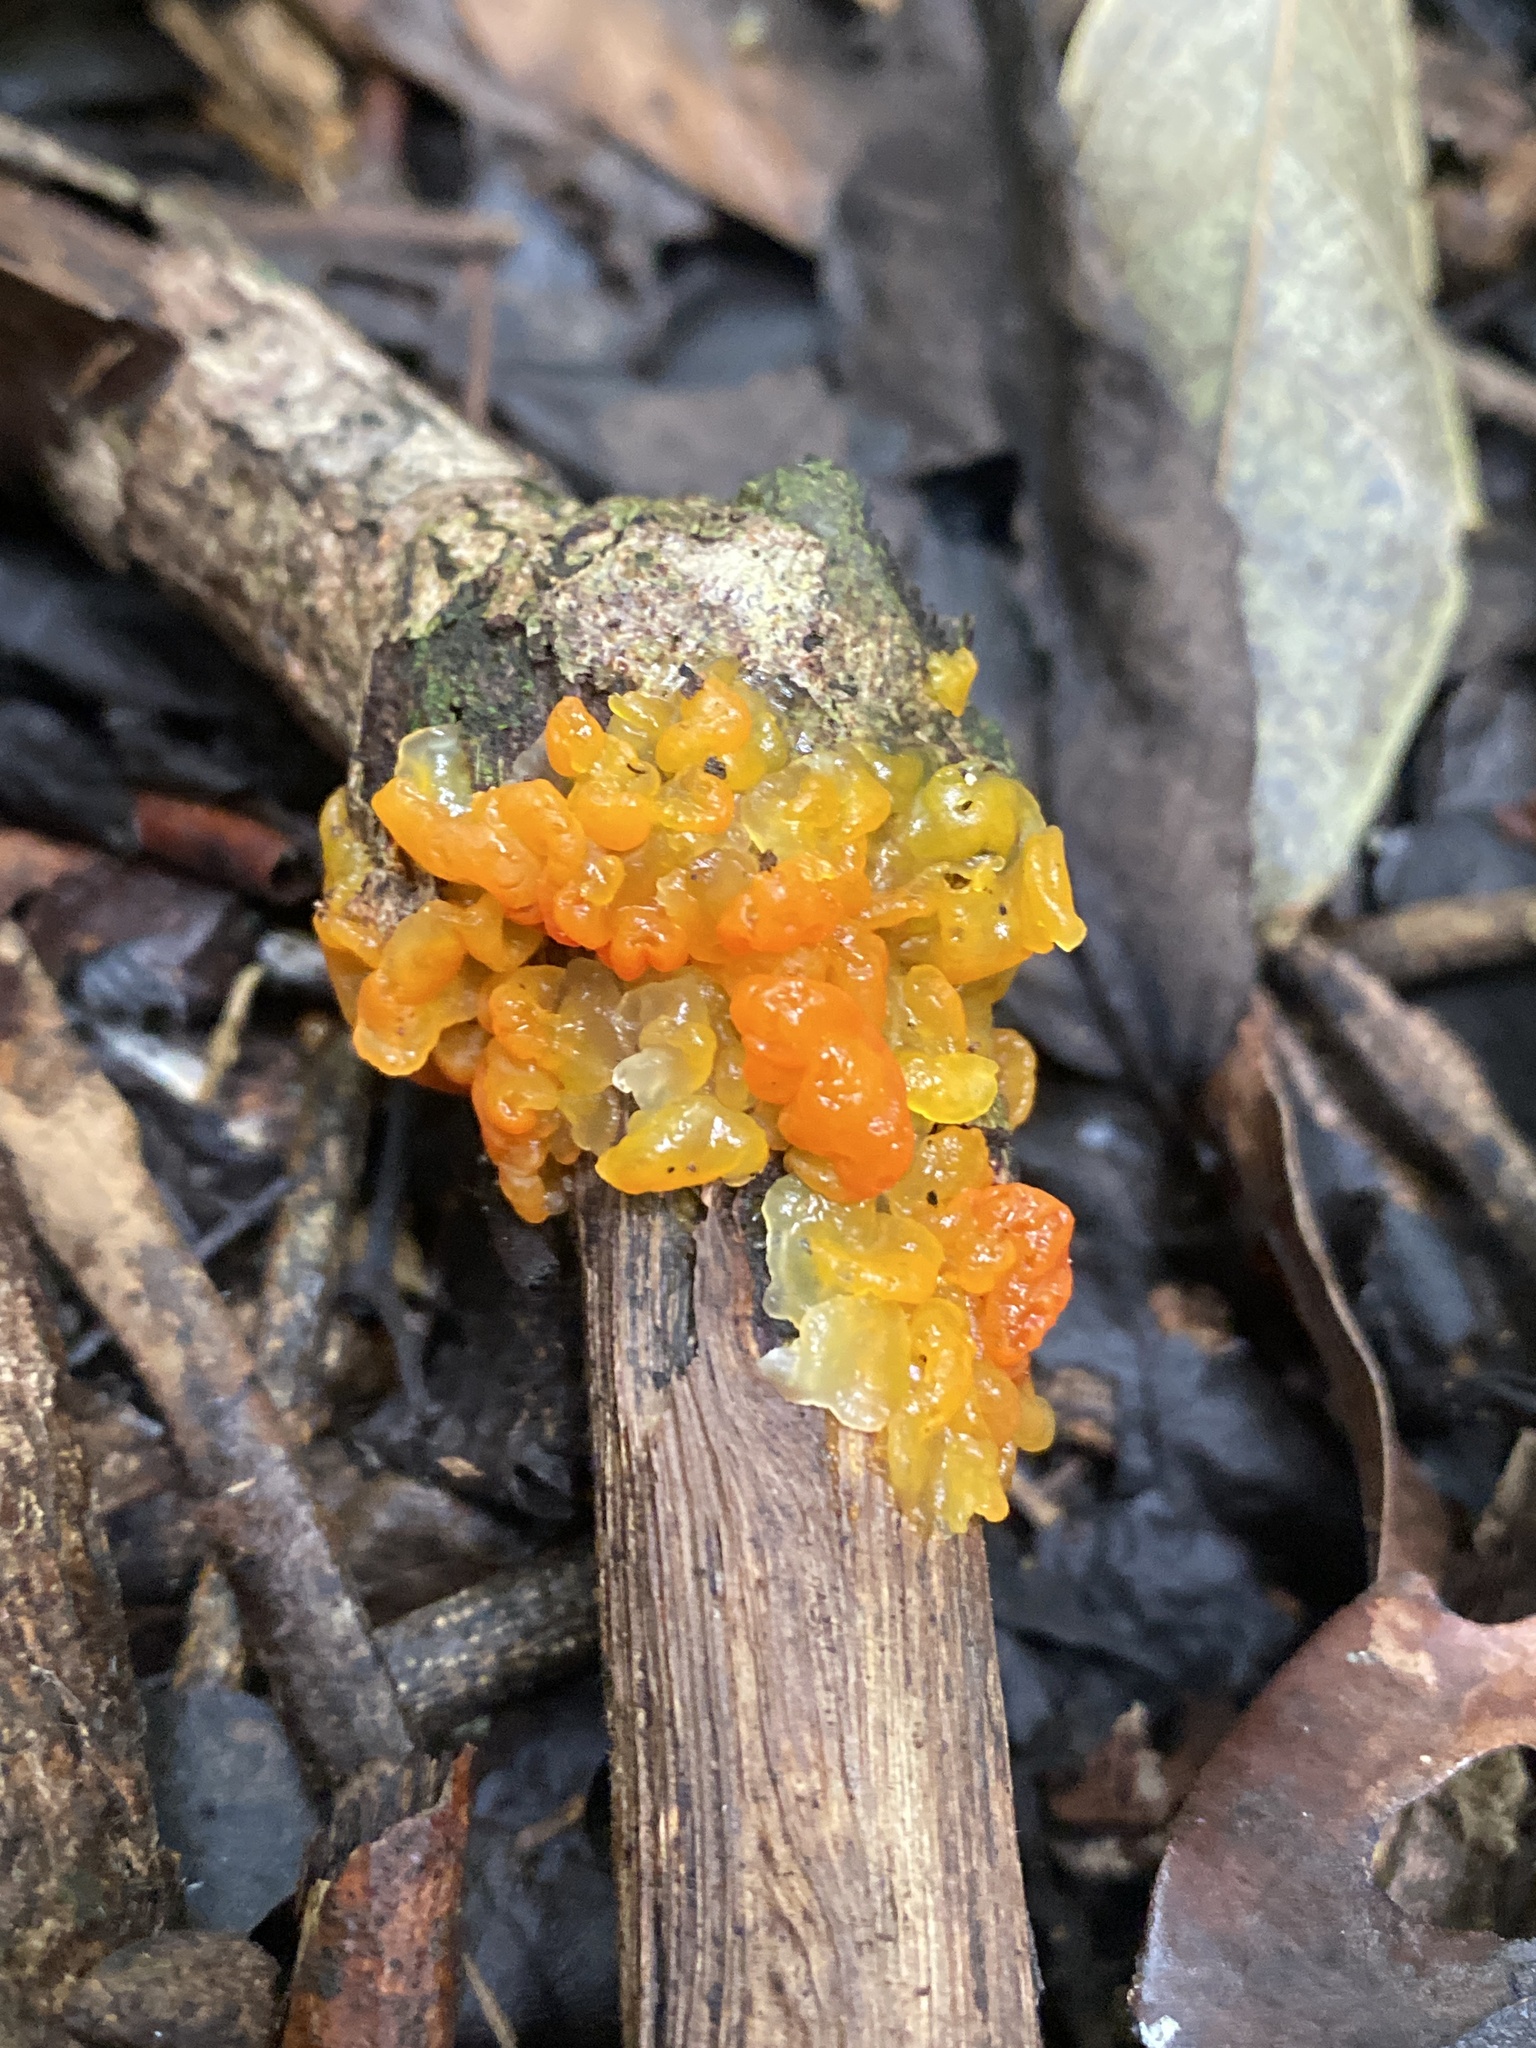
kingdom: Fungi
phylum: Basidiomycota
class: Tremellomycetes
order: Tremellales
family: Tremellaceae
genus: Tremella
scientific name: Tremella dysenterica
